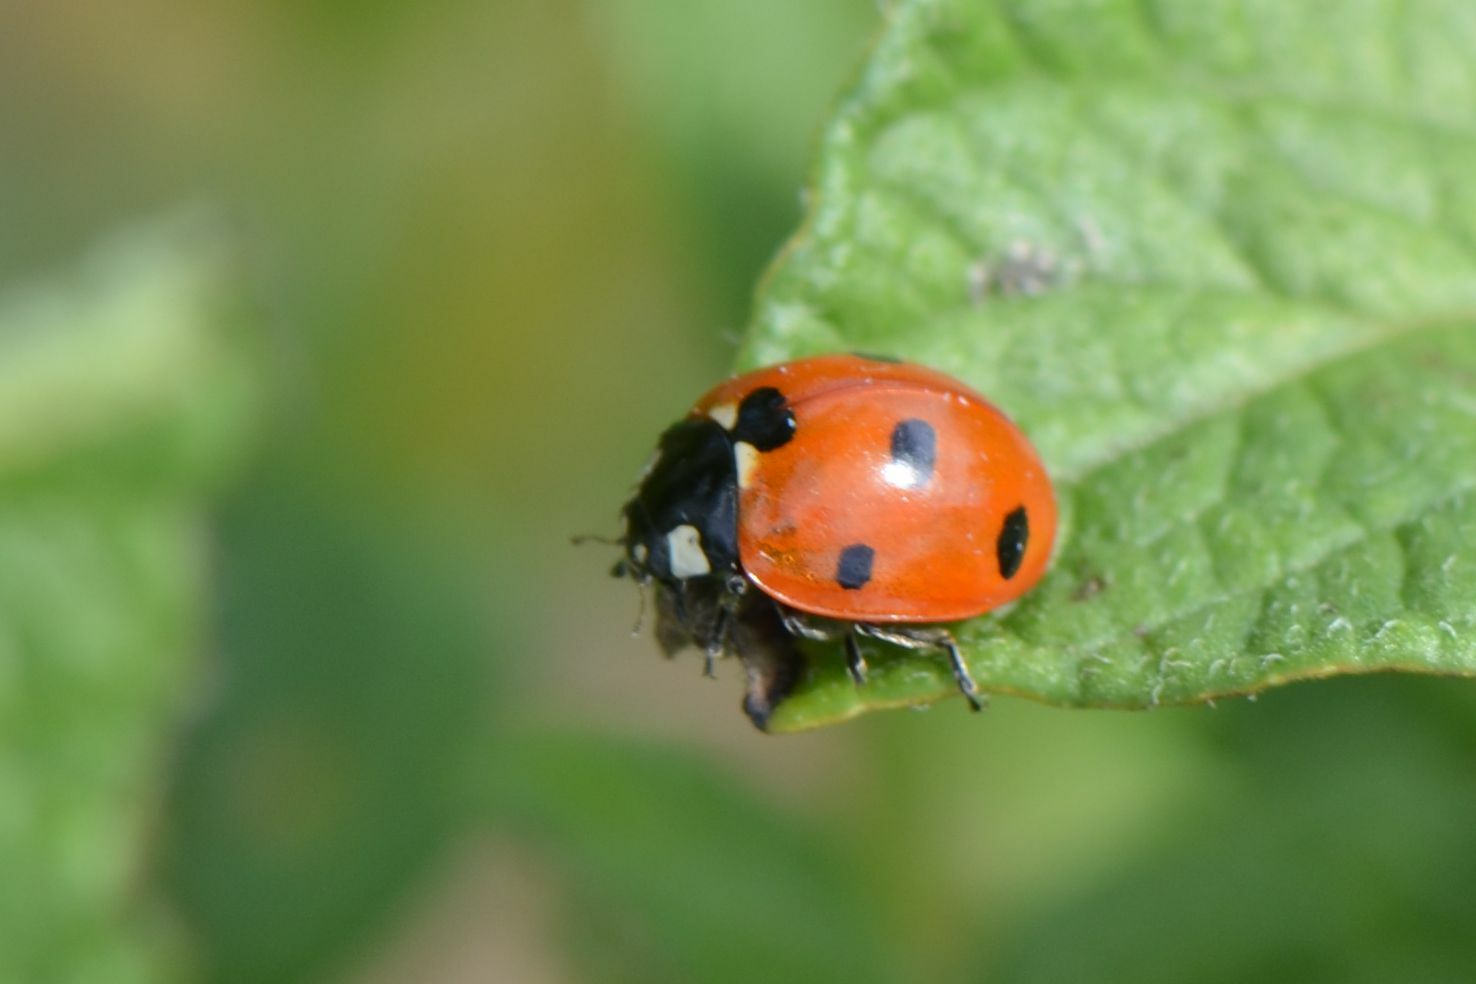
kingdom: Animalia
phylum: Arthropoda
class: Insecta
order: Coleoptera
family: Coccinellidae
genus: Coccinella
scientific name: Coccinella septempunctata
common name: Sevenspotted lady beetle
